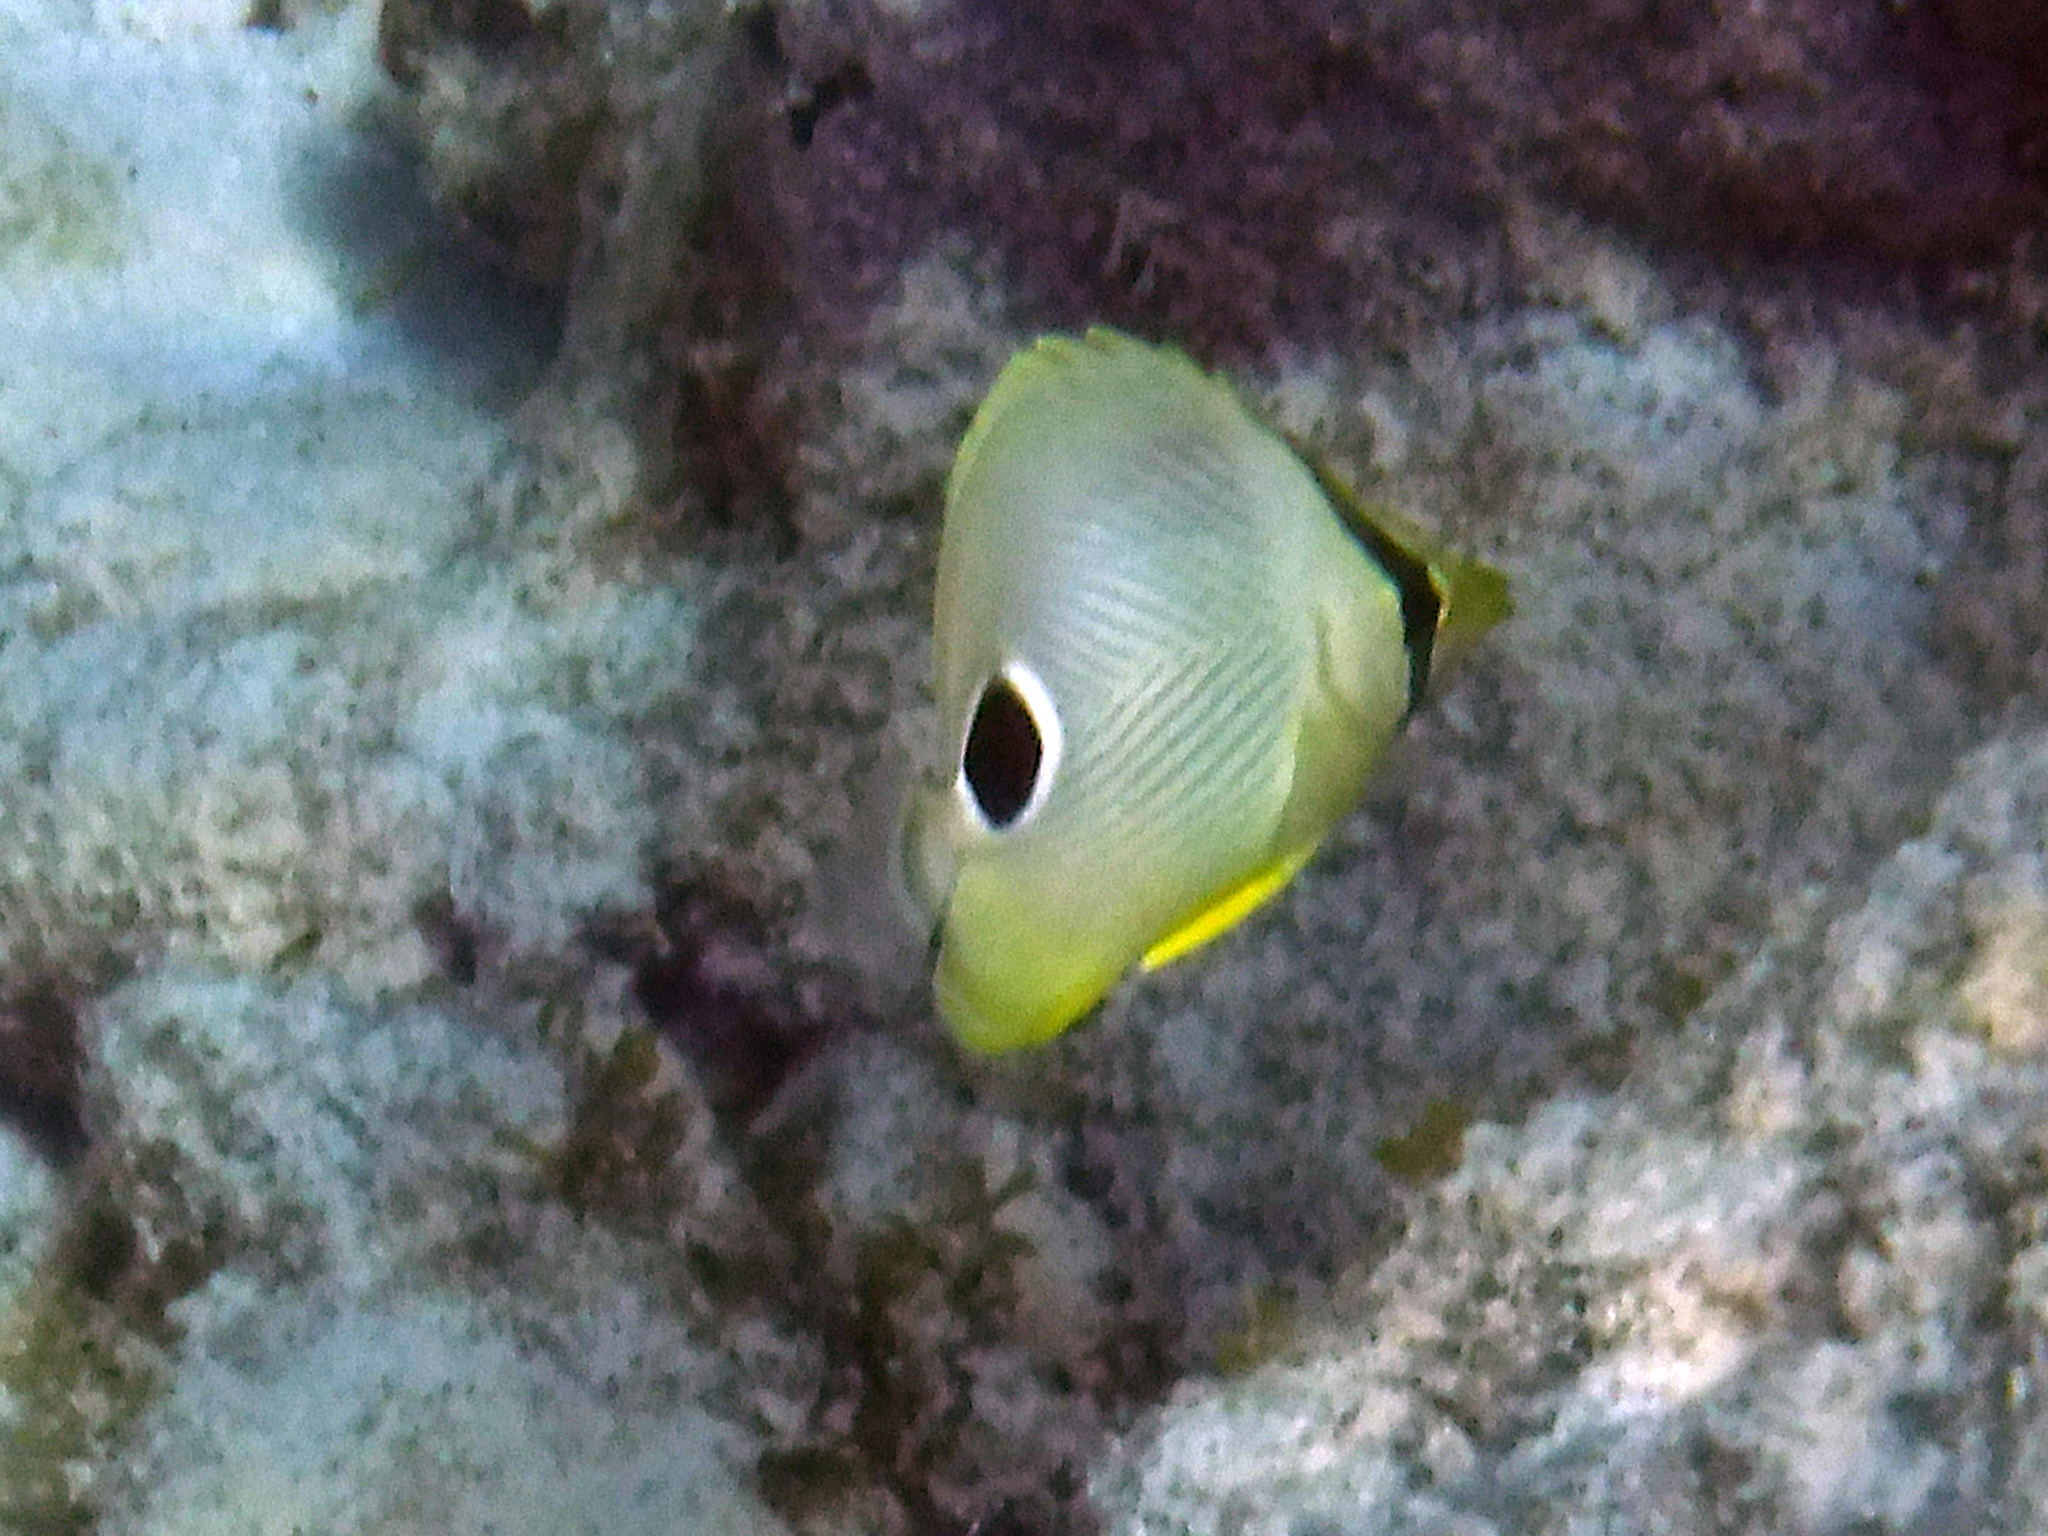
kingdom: Animalia
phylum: Chordata
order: Perciformes
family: Chaetodontidae
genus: Chaetodon
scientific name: Chaetodon capistratus
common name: Kete
